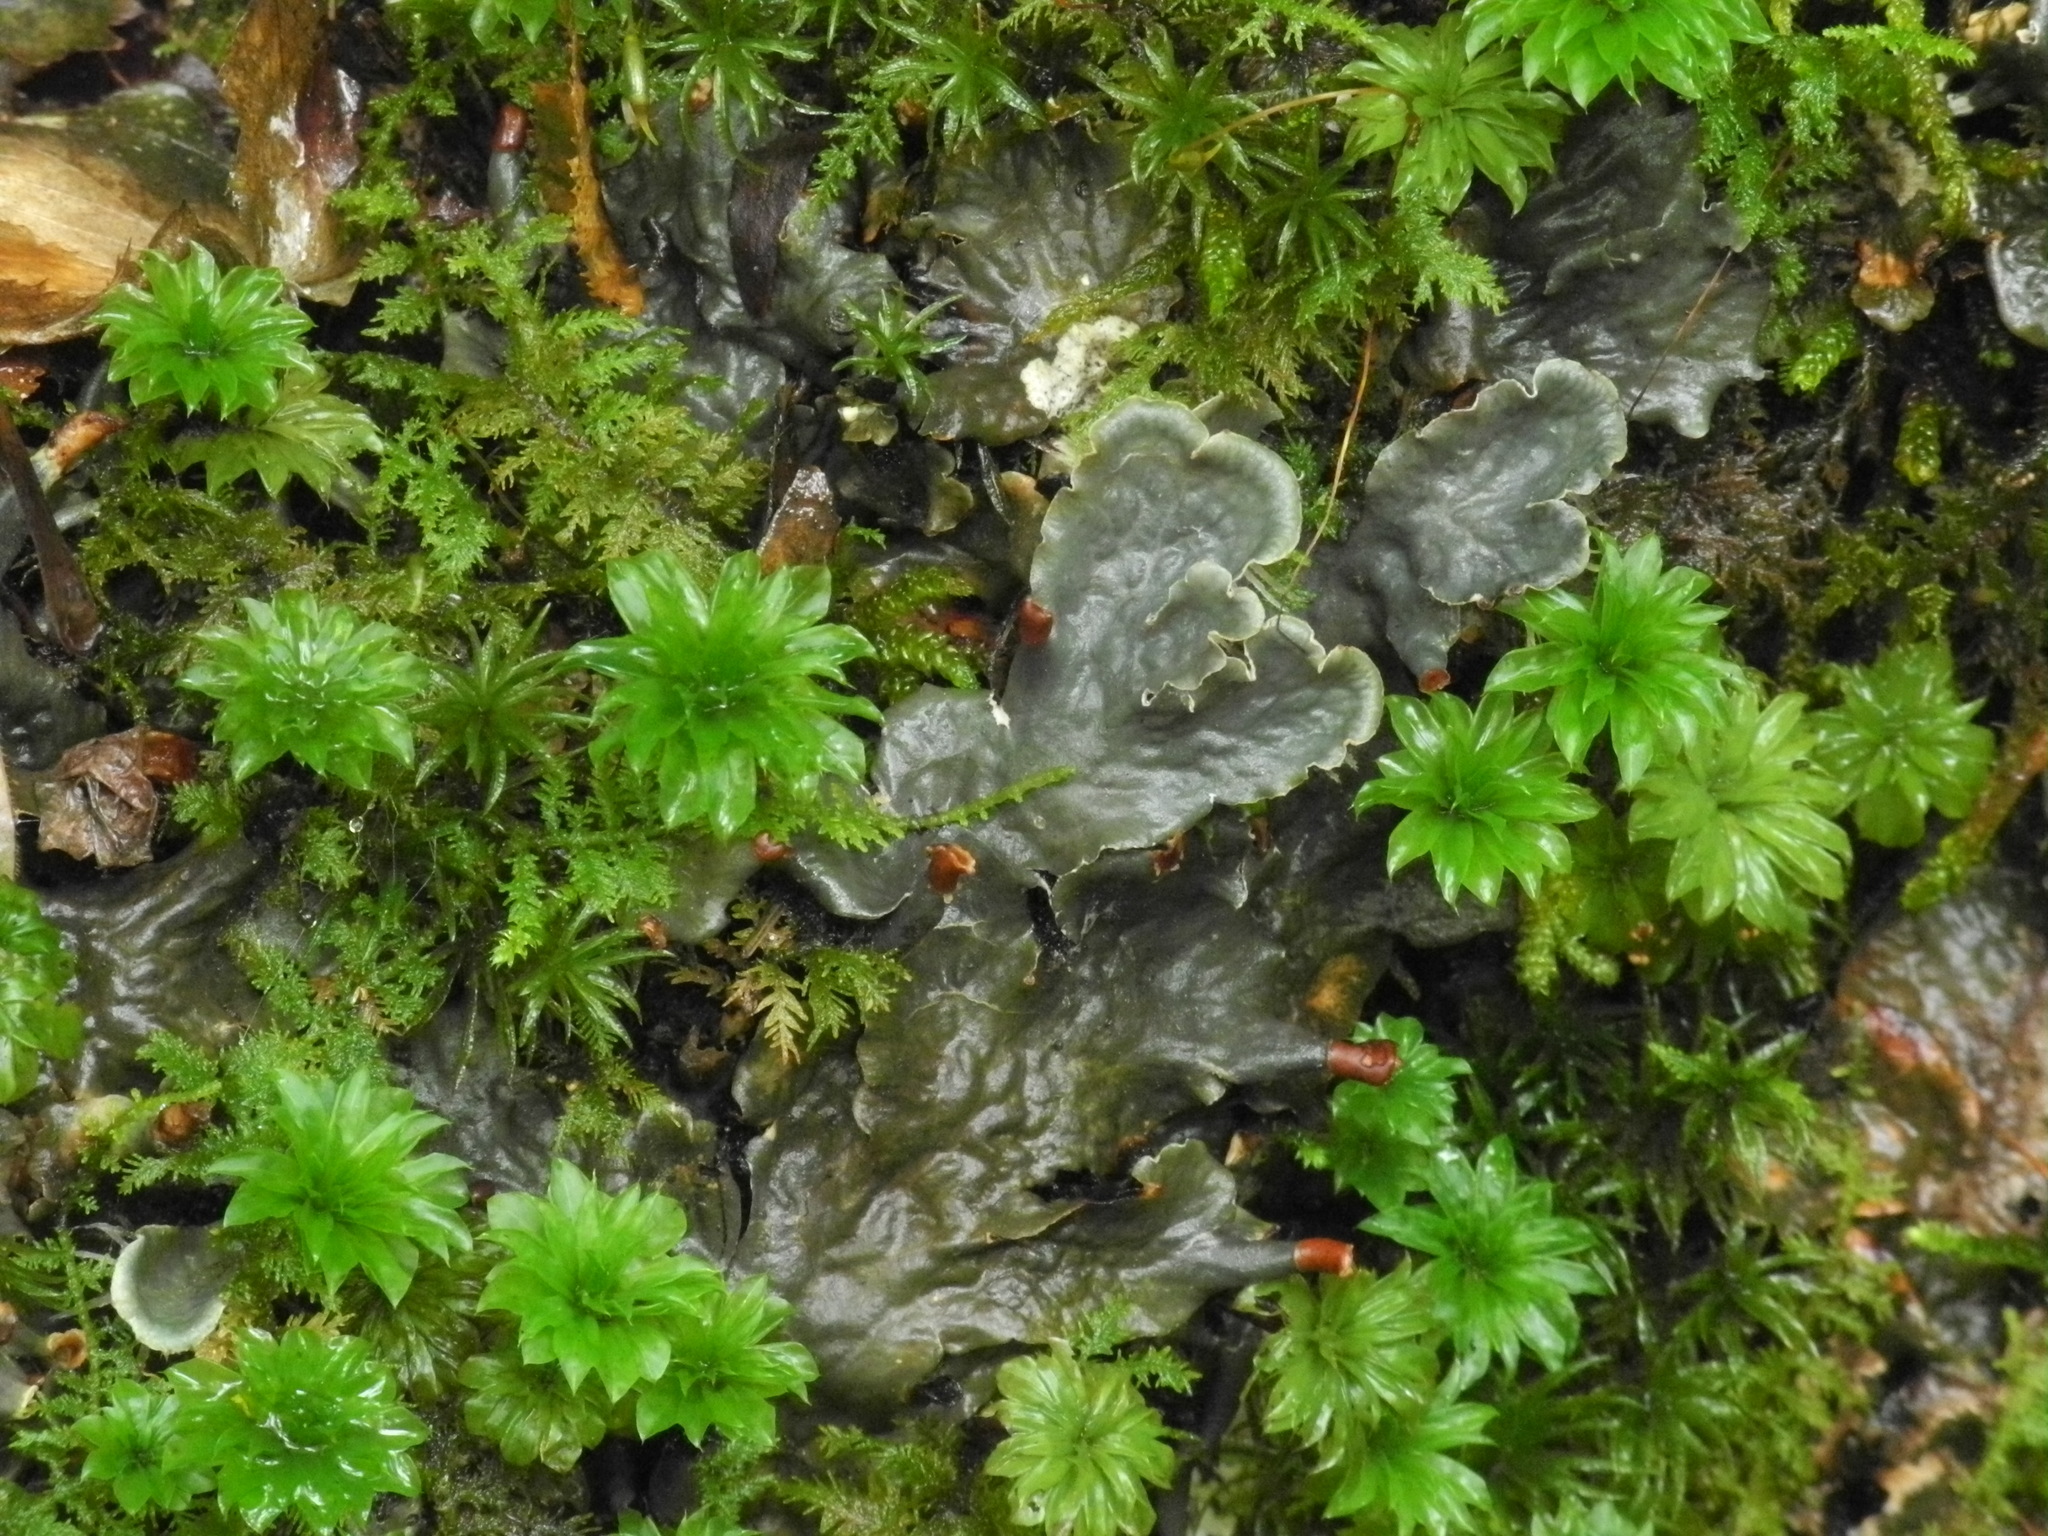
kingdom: Fungi
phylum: Ascomycota
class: Lecanoromycetes
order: Peltigerales
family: Peltigeraceae
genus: Peltigera
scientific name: Peltigera praetextata
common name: Scaly dog-lichen
